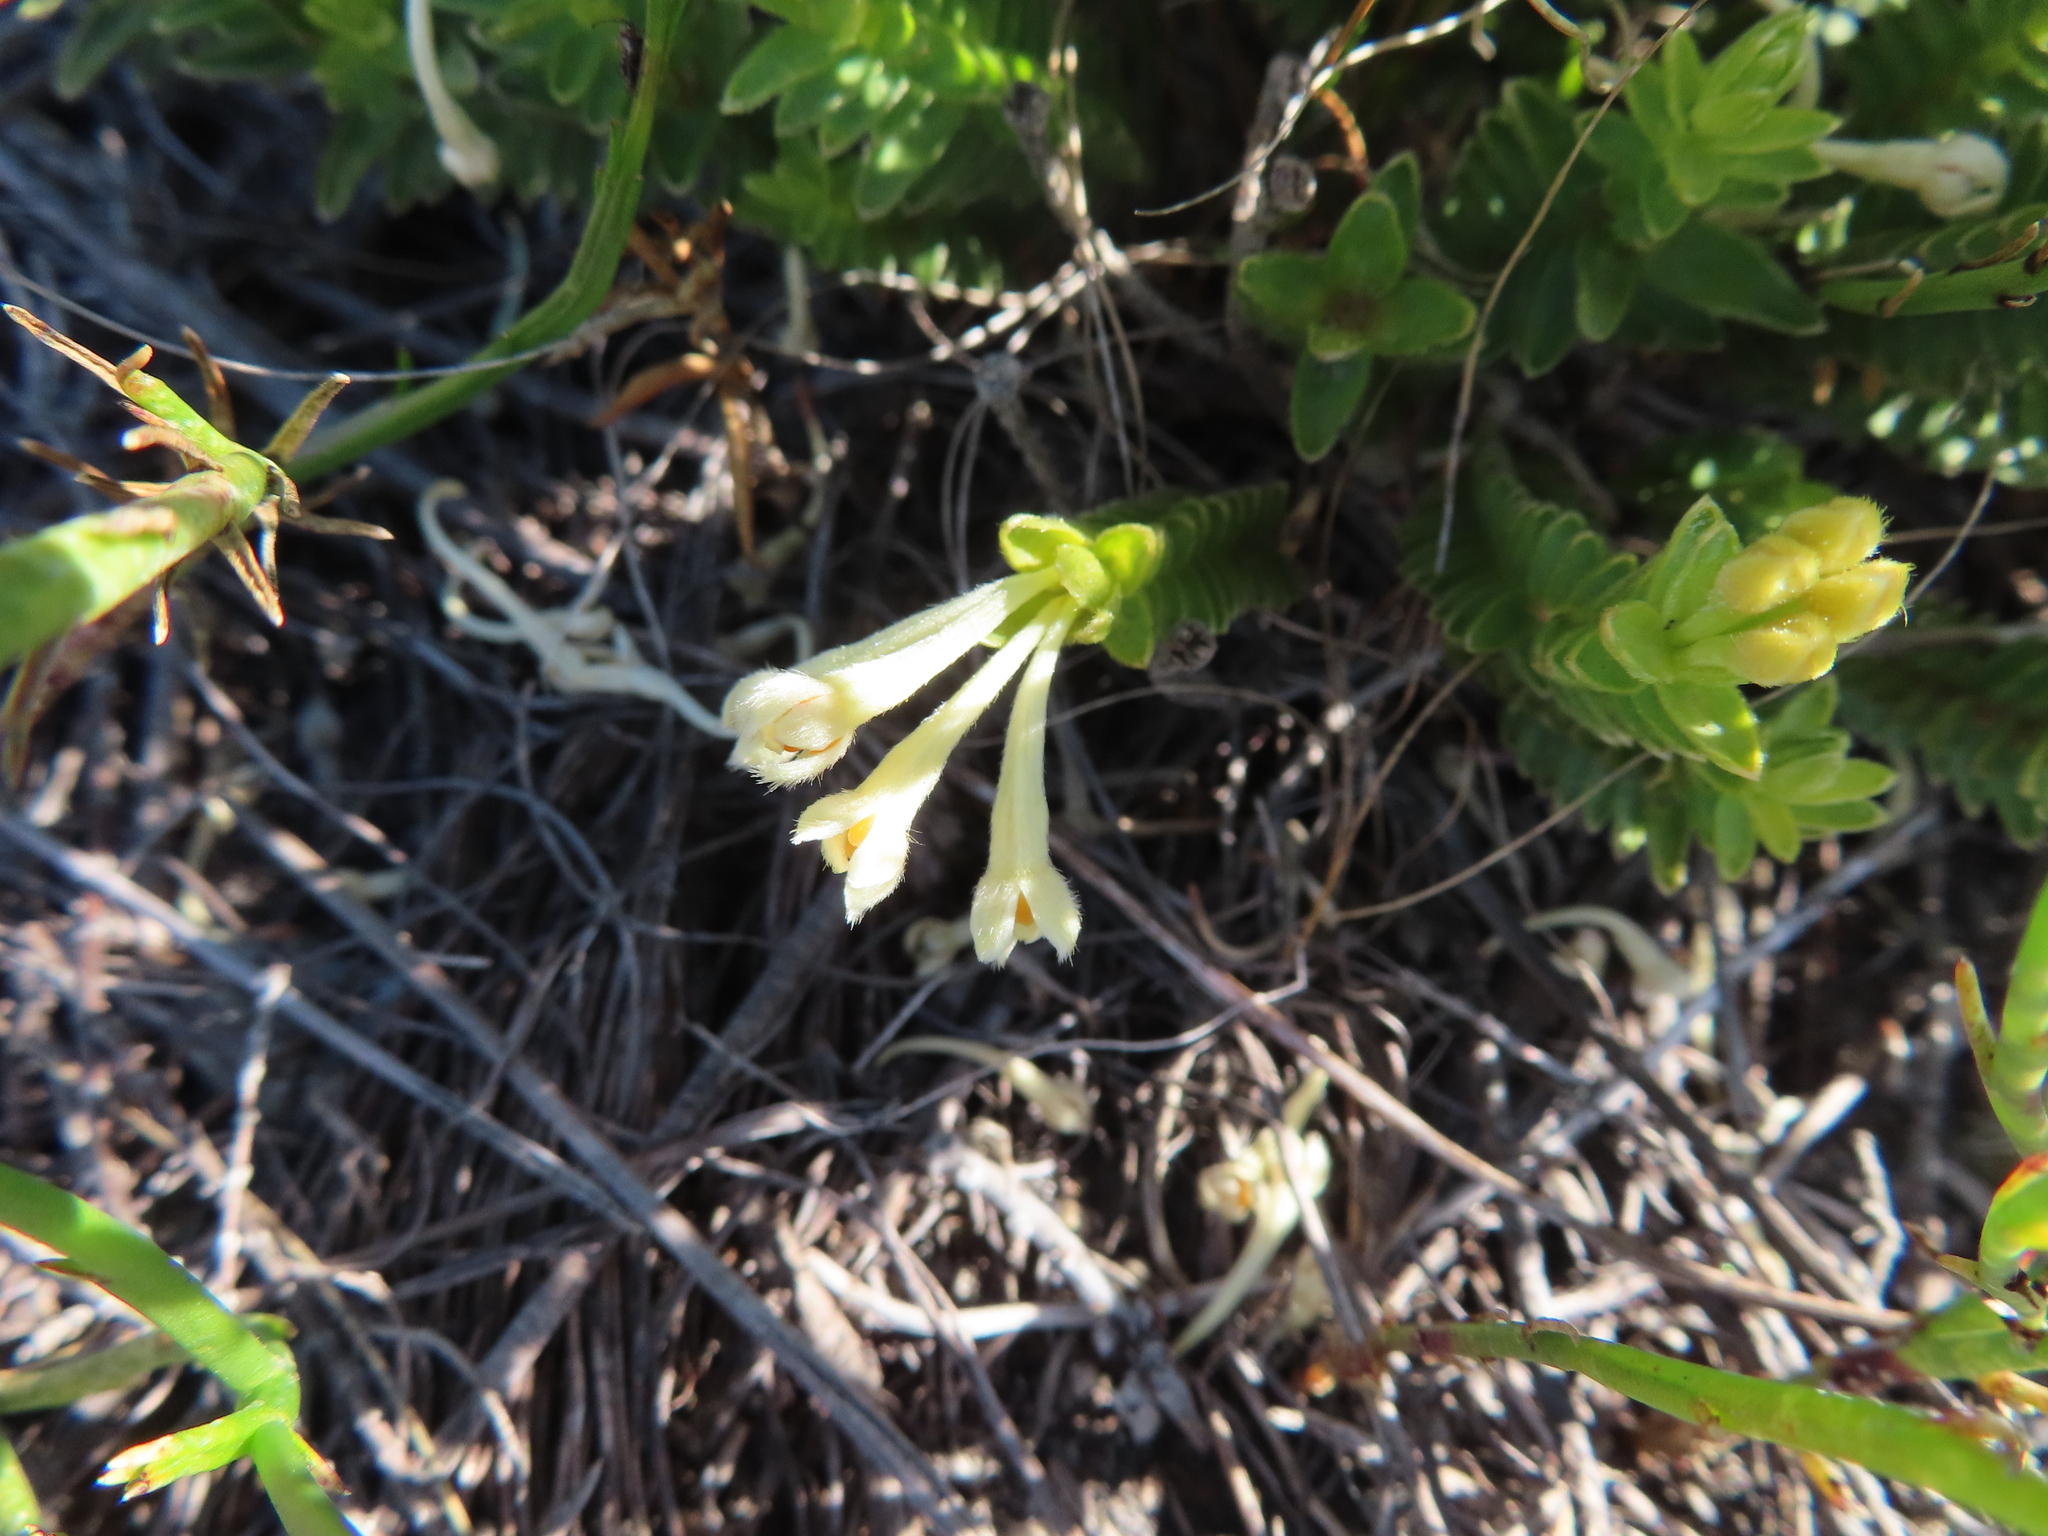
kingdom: Plantae
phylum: Tracheophyta
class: Magnoliopsida
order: Malvales
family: Thymelaeaceae
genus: Gnidia
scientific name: Gnidia anomala
